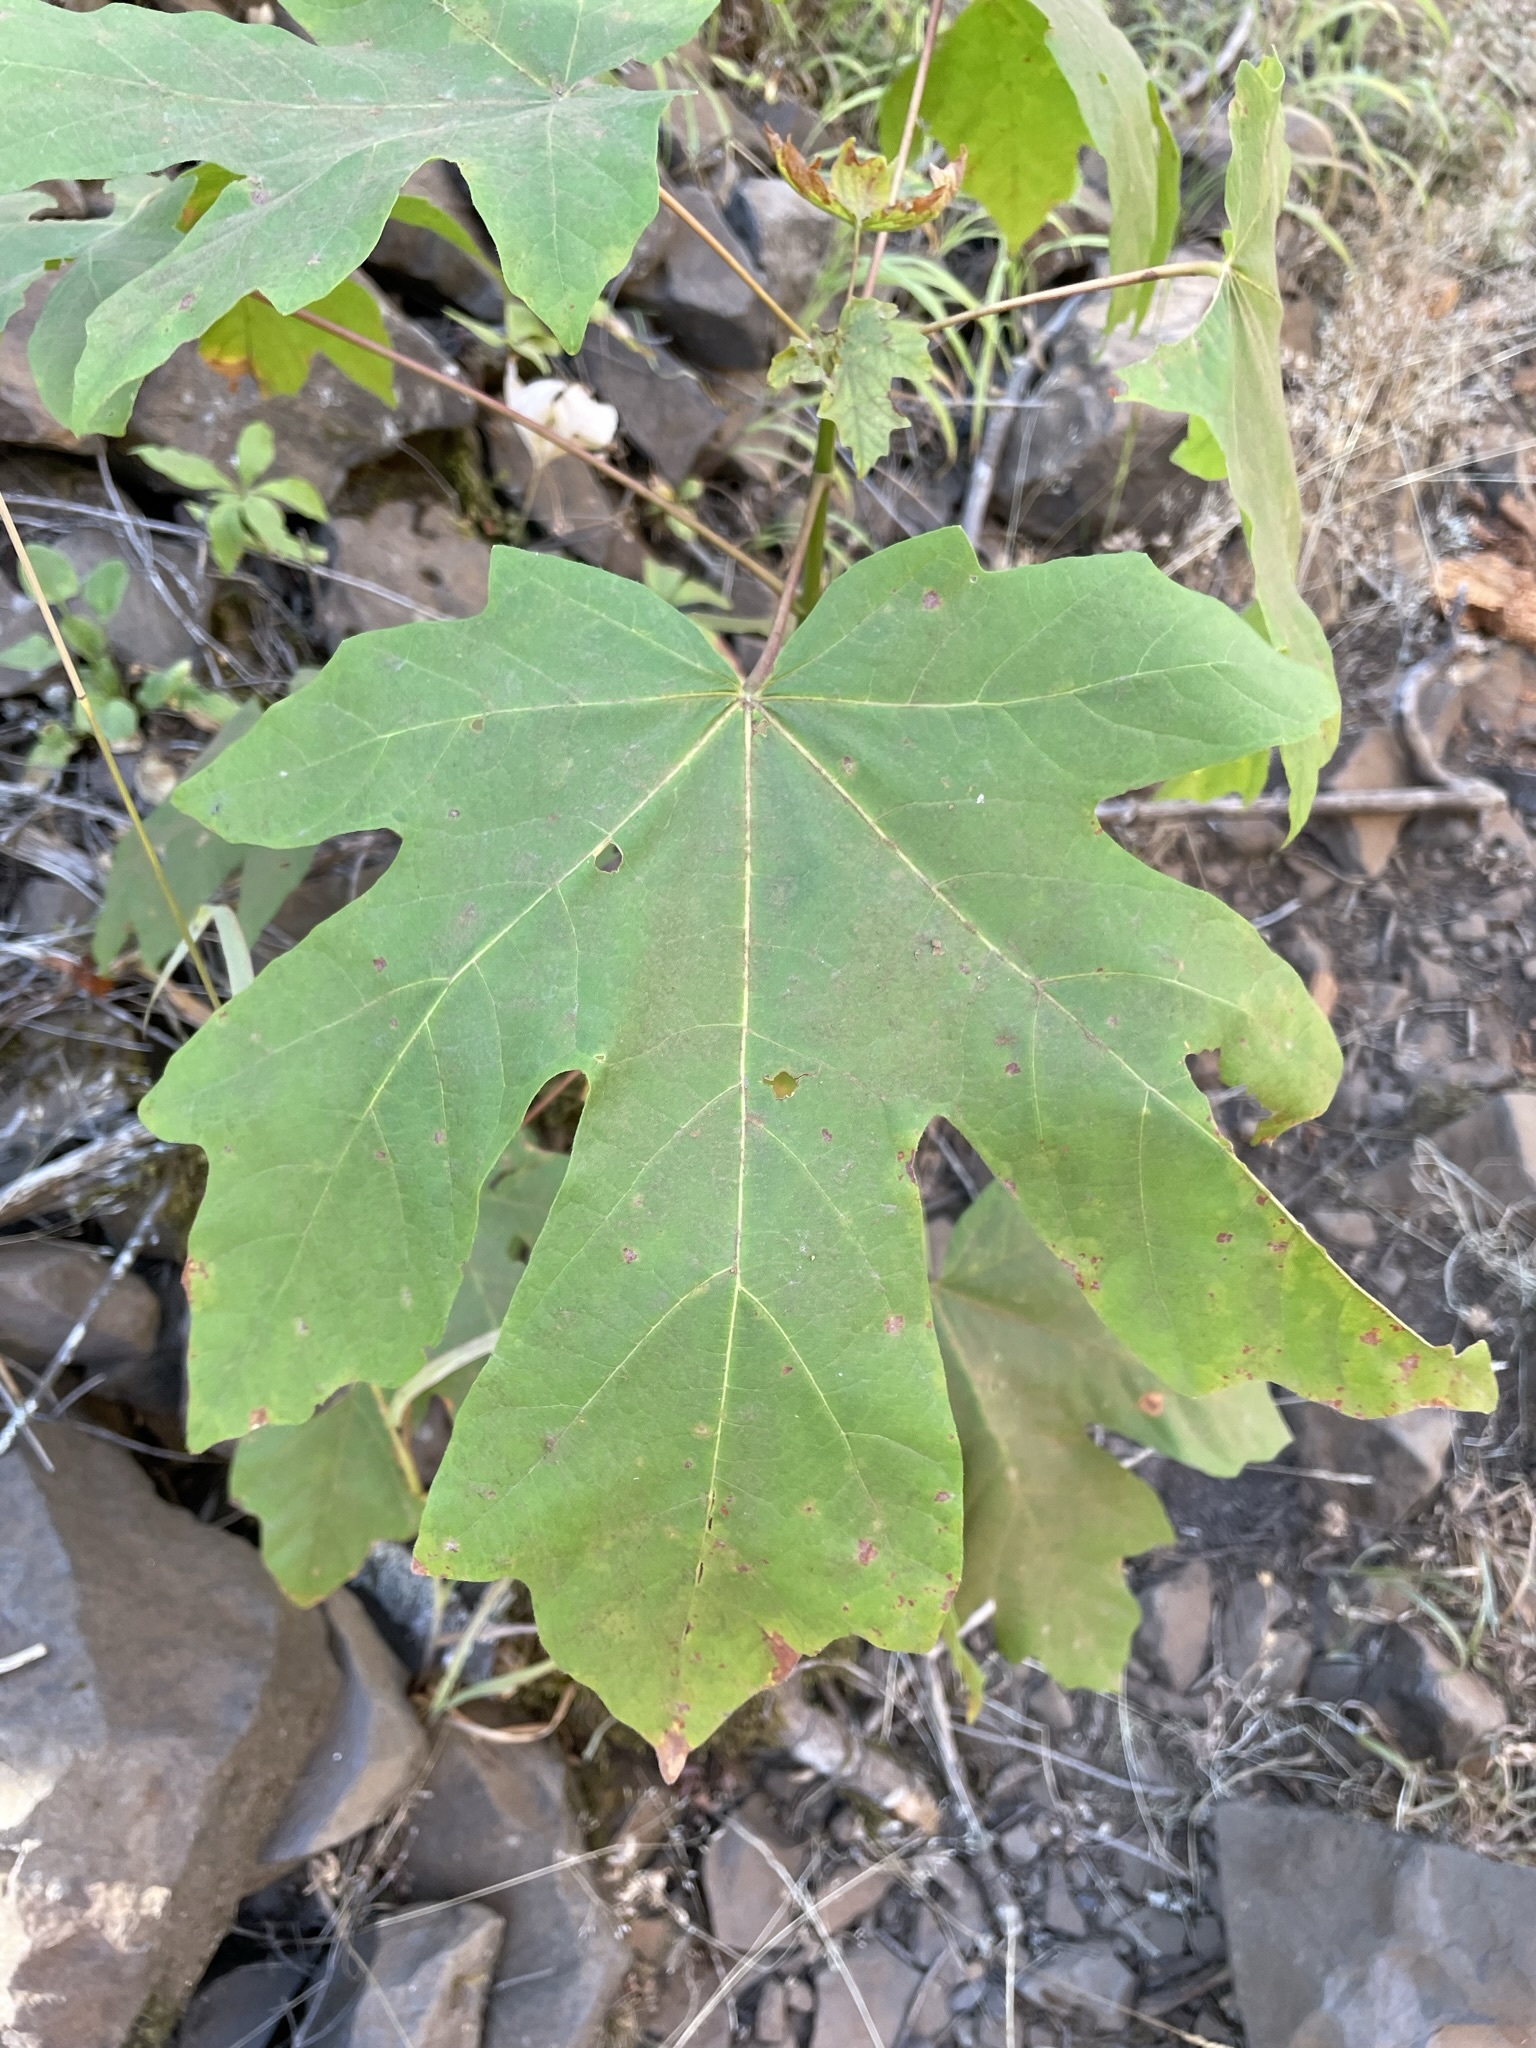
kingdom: Plantae
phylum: Tracheophyta
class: Magnoliopsida
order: Sapindales
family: Sapindaceae
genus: Acer
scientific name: Acer macrophyllum
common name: Oregon maple
